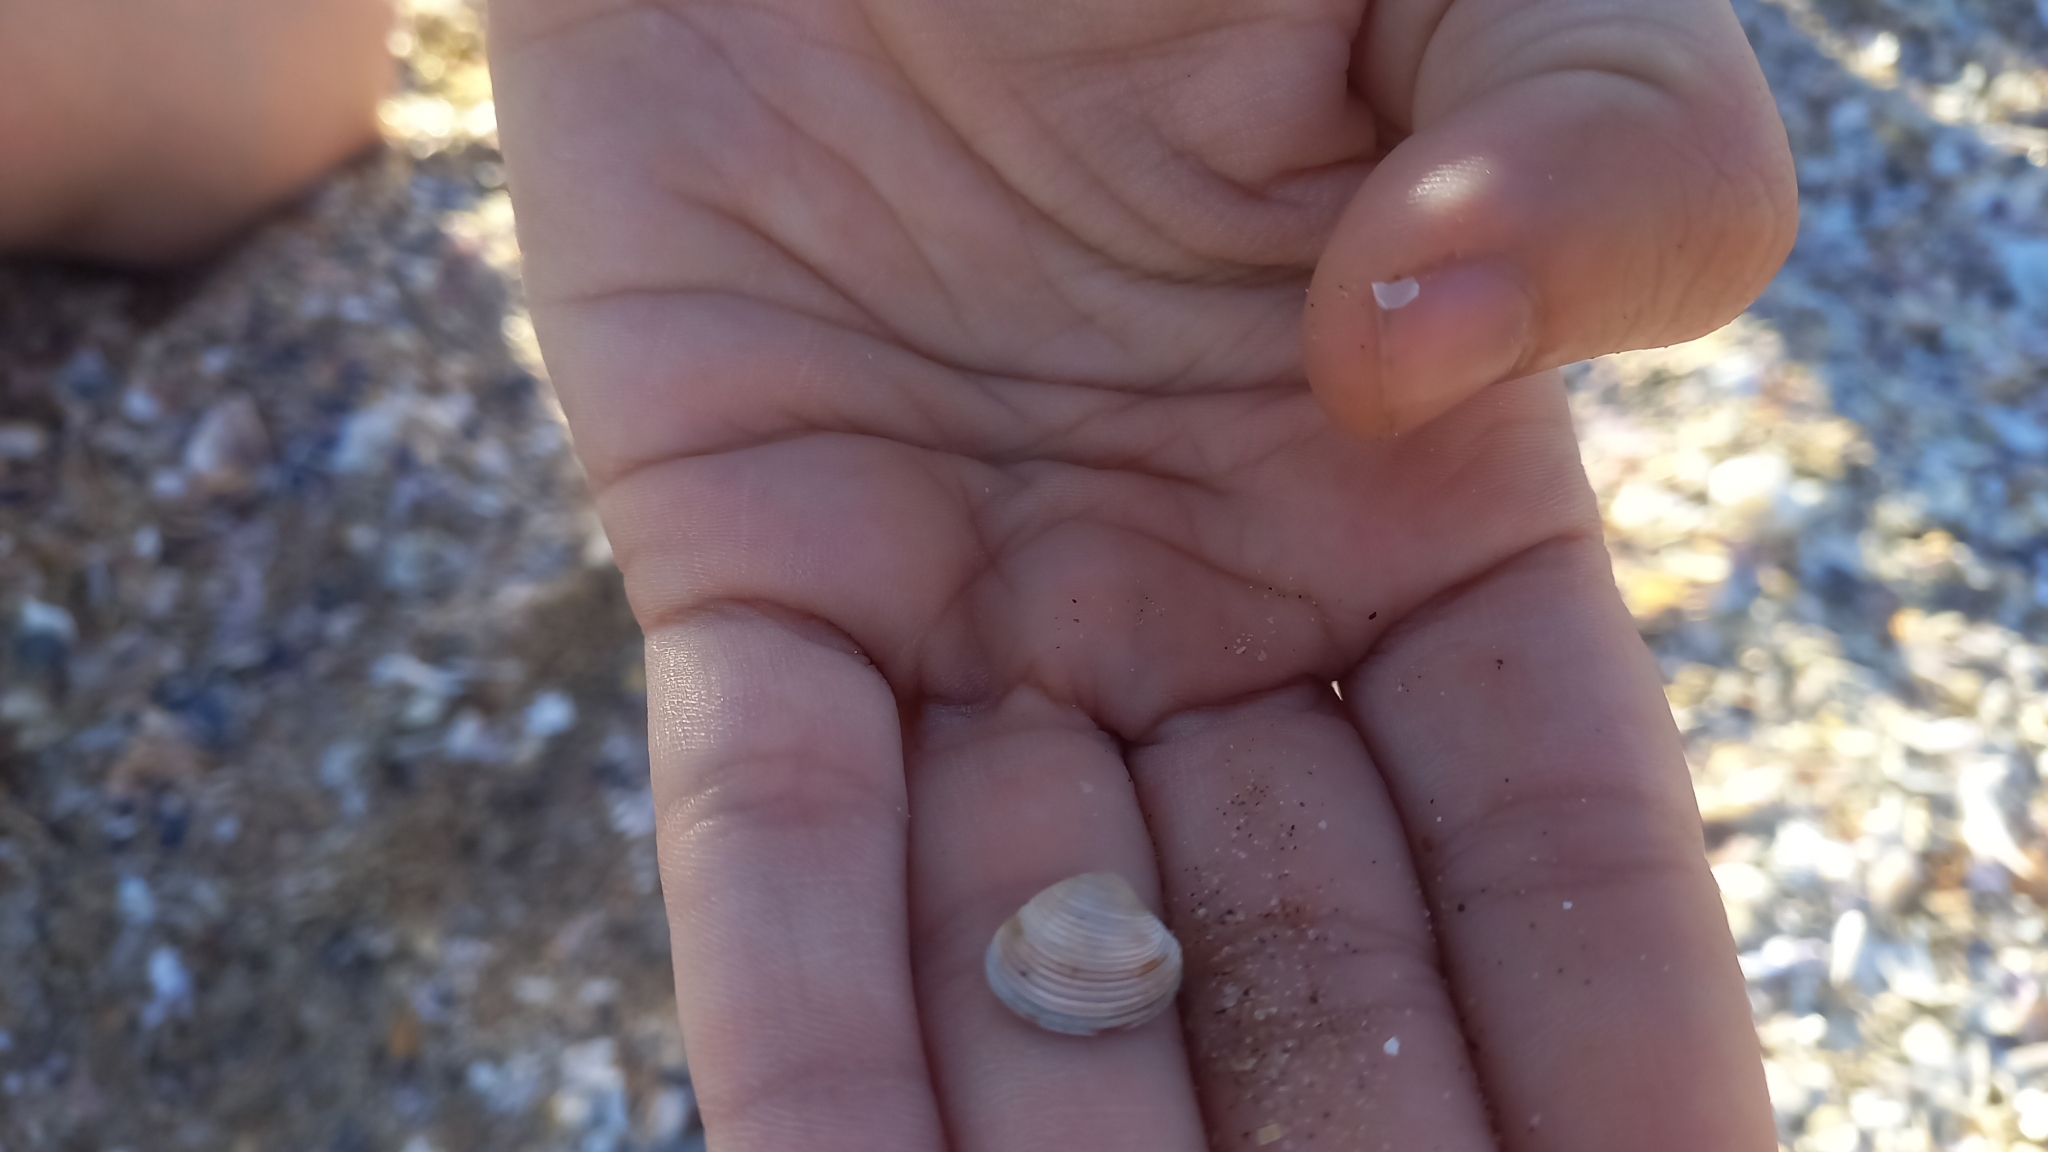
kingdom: Animalia
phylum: Mollusca
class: Bivalvia
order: Venerida
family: Veneridae
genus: Chamelea
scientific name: Chamelea gallina
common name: Chicken venus
